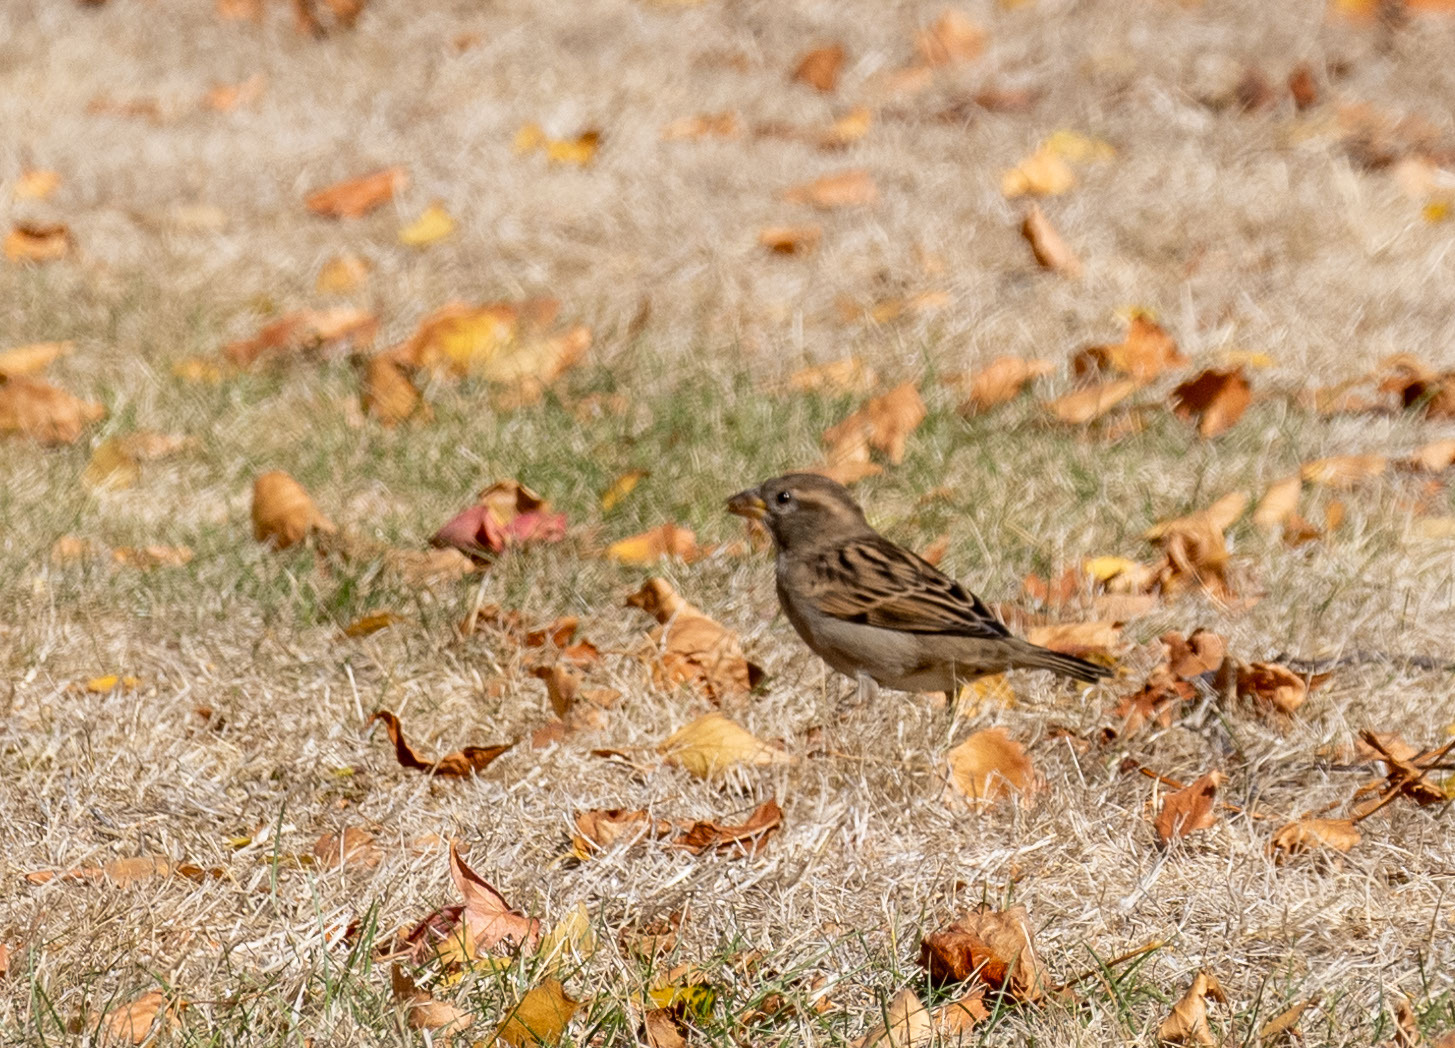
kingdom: Animalia
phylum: Chordata
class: Aves
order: Passeriformes
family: Passeridae
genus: Passer
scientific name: Passer domesticus
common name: House sparrow
